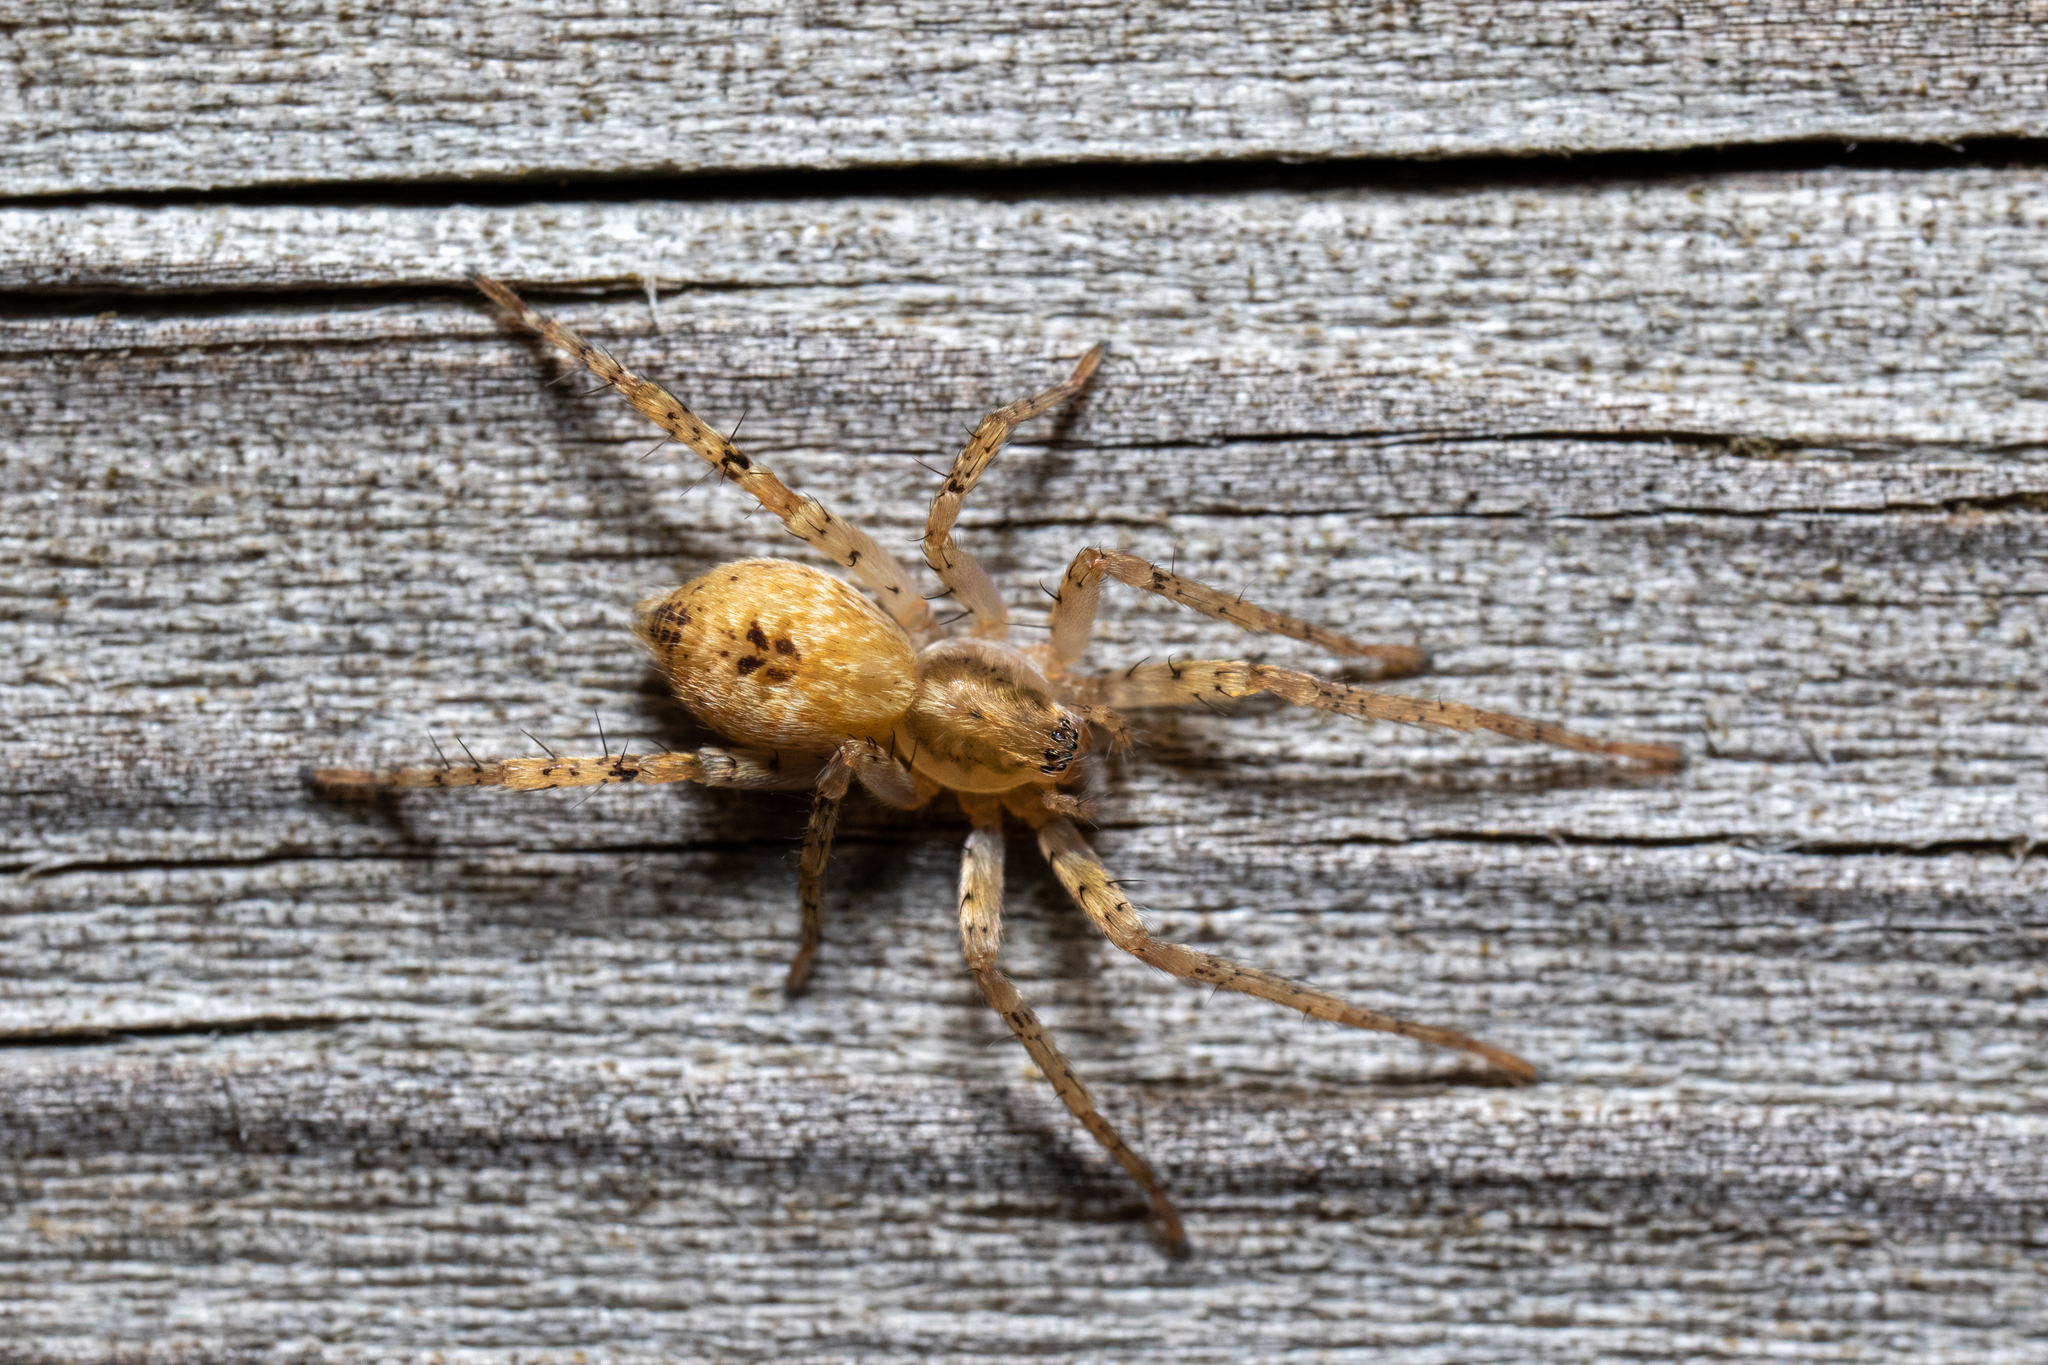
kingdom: Animalia
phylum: Arthropoda
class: Arachnida
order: Araneae
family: Anyphaenidae
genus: Anyphaena
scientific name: Anyphaena accentuata
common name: Buzzing spider
